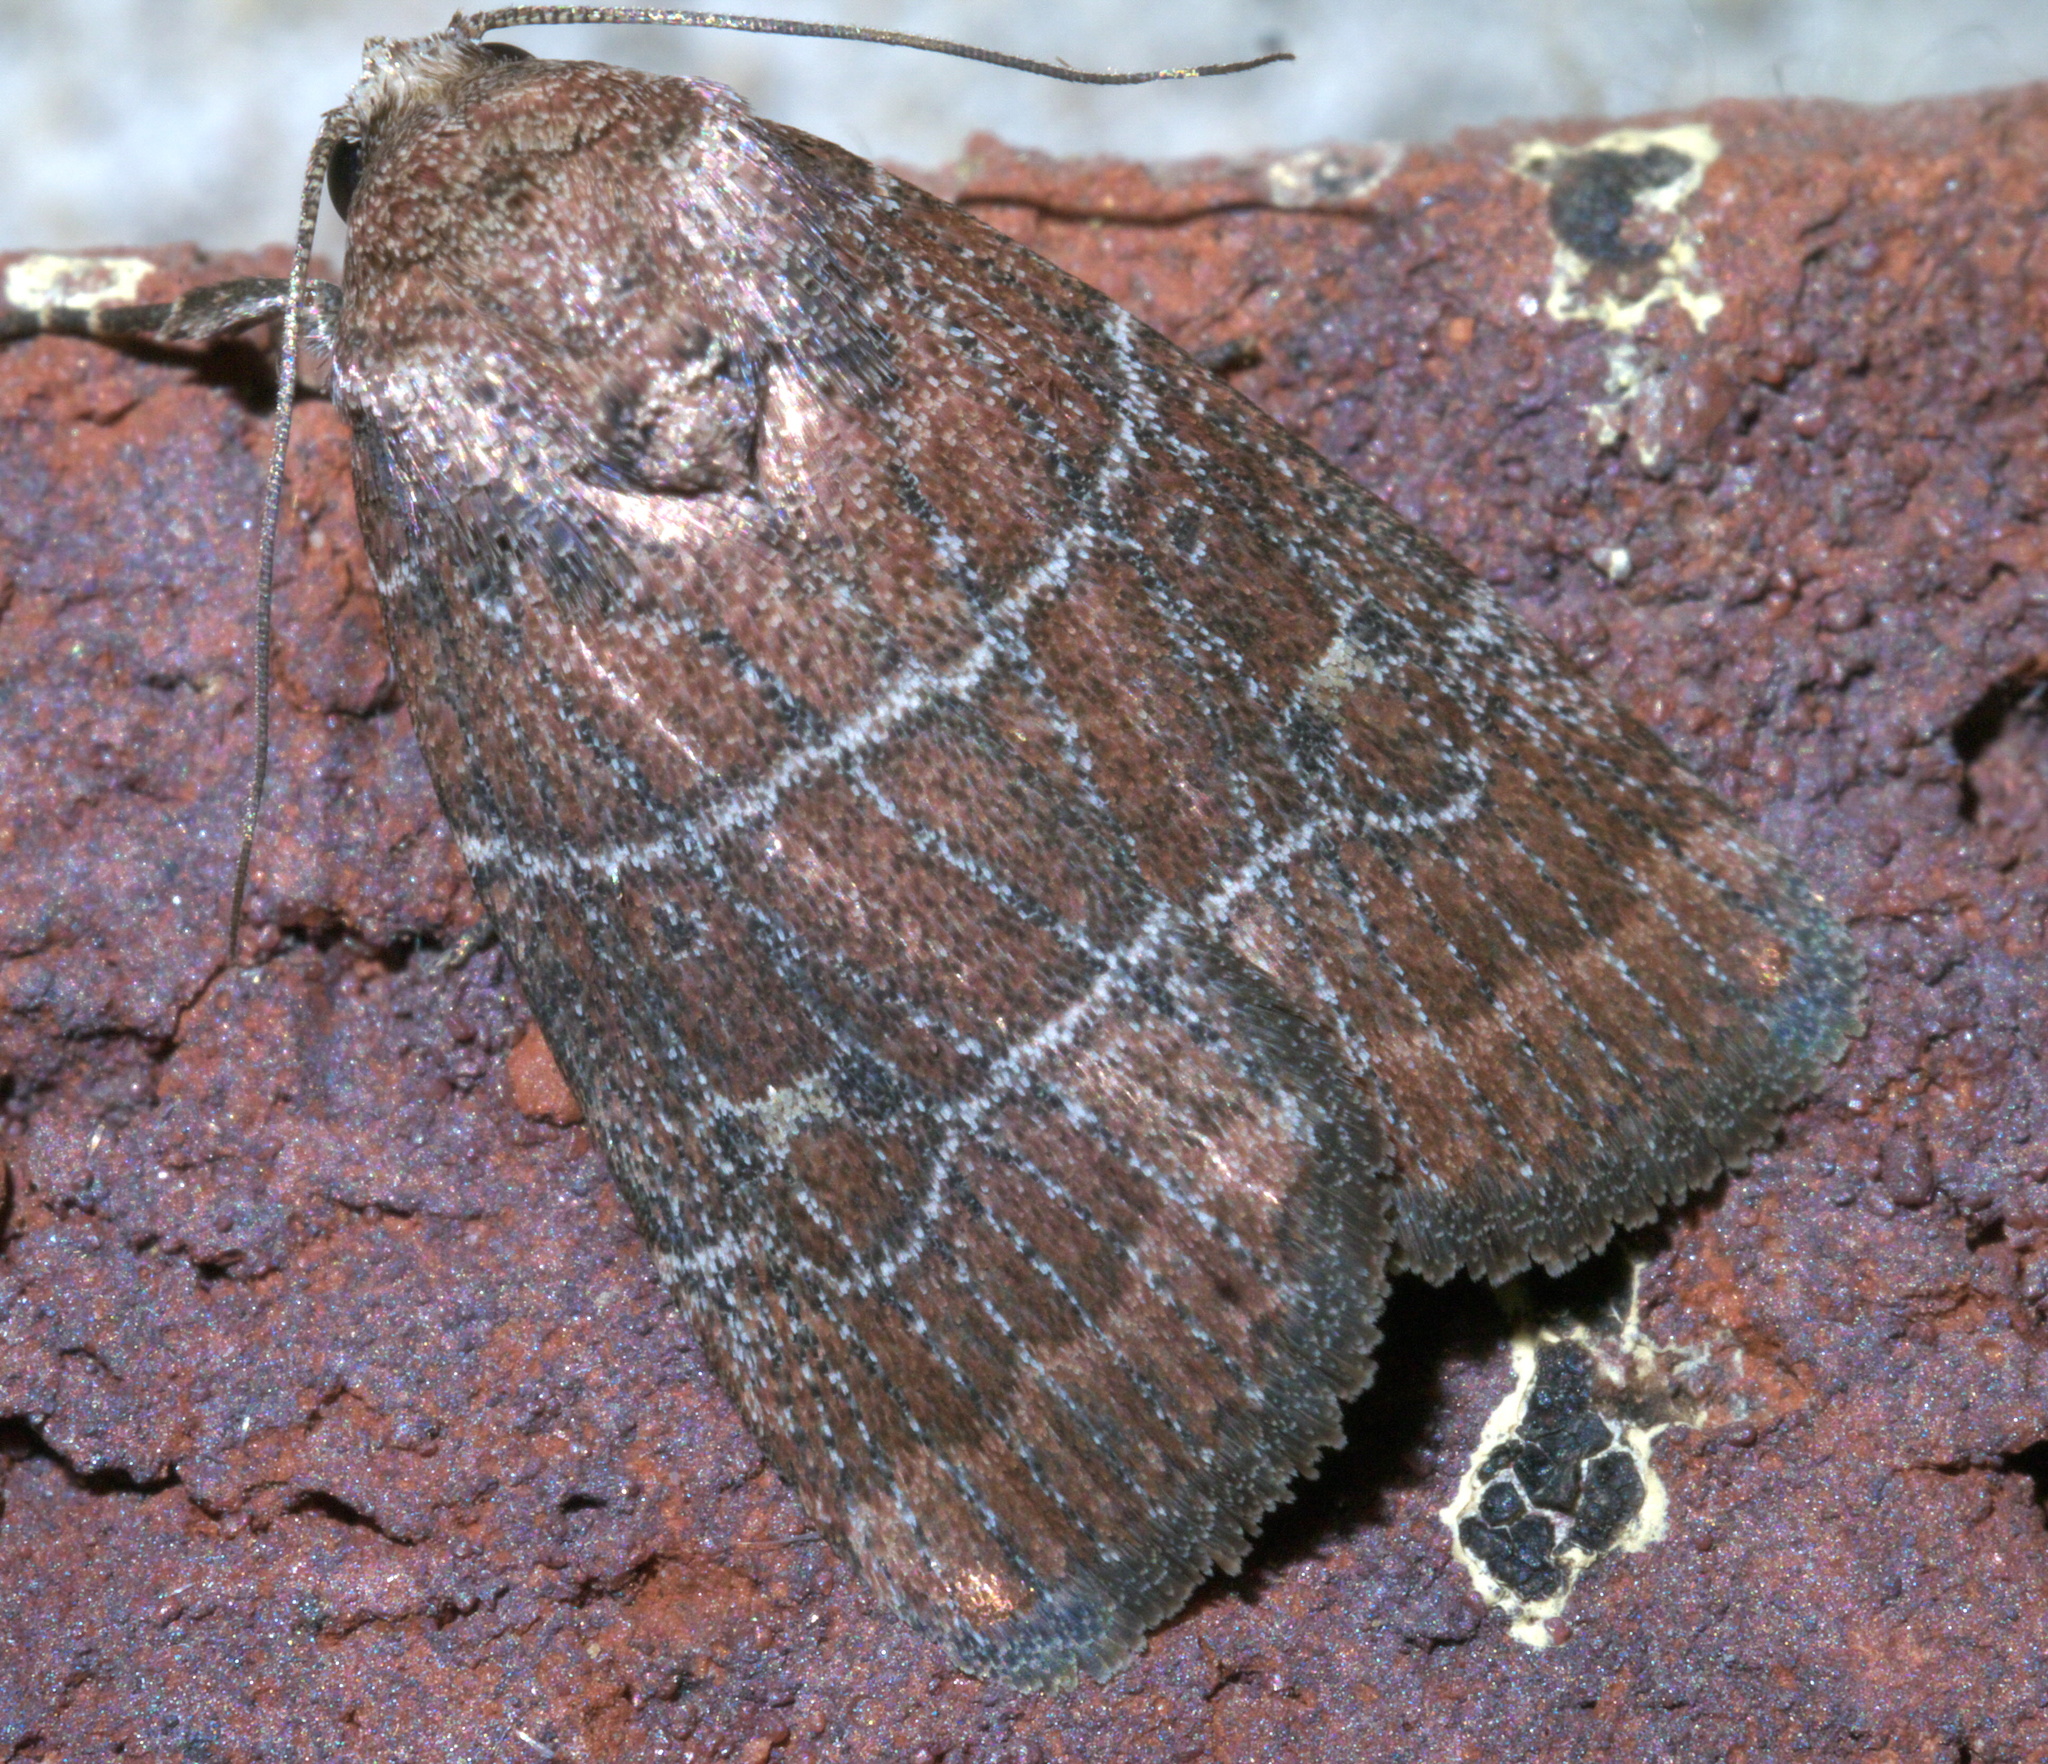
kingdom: Animalia
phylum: Arthropoda
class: Insecta
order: Lepidoptera
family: Noctuidae
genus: Elaphria
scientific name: Elaphria grata
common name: Grateful midget moth
